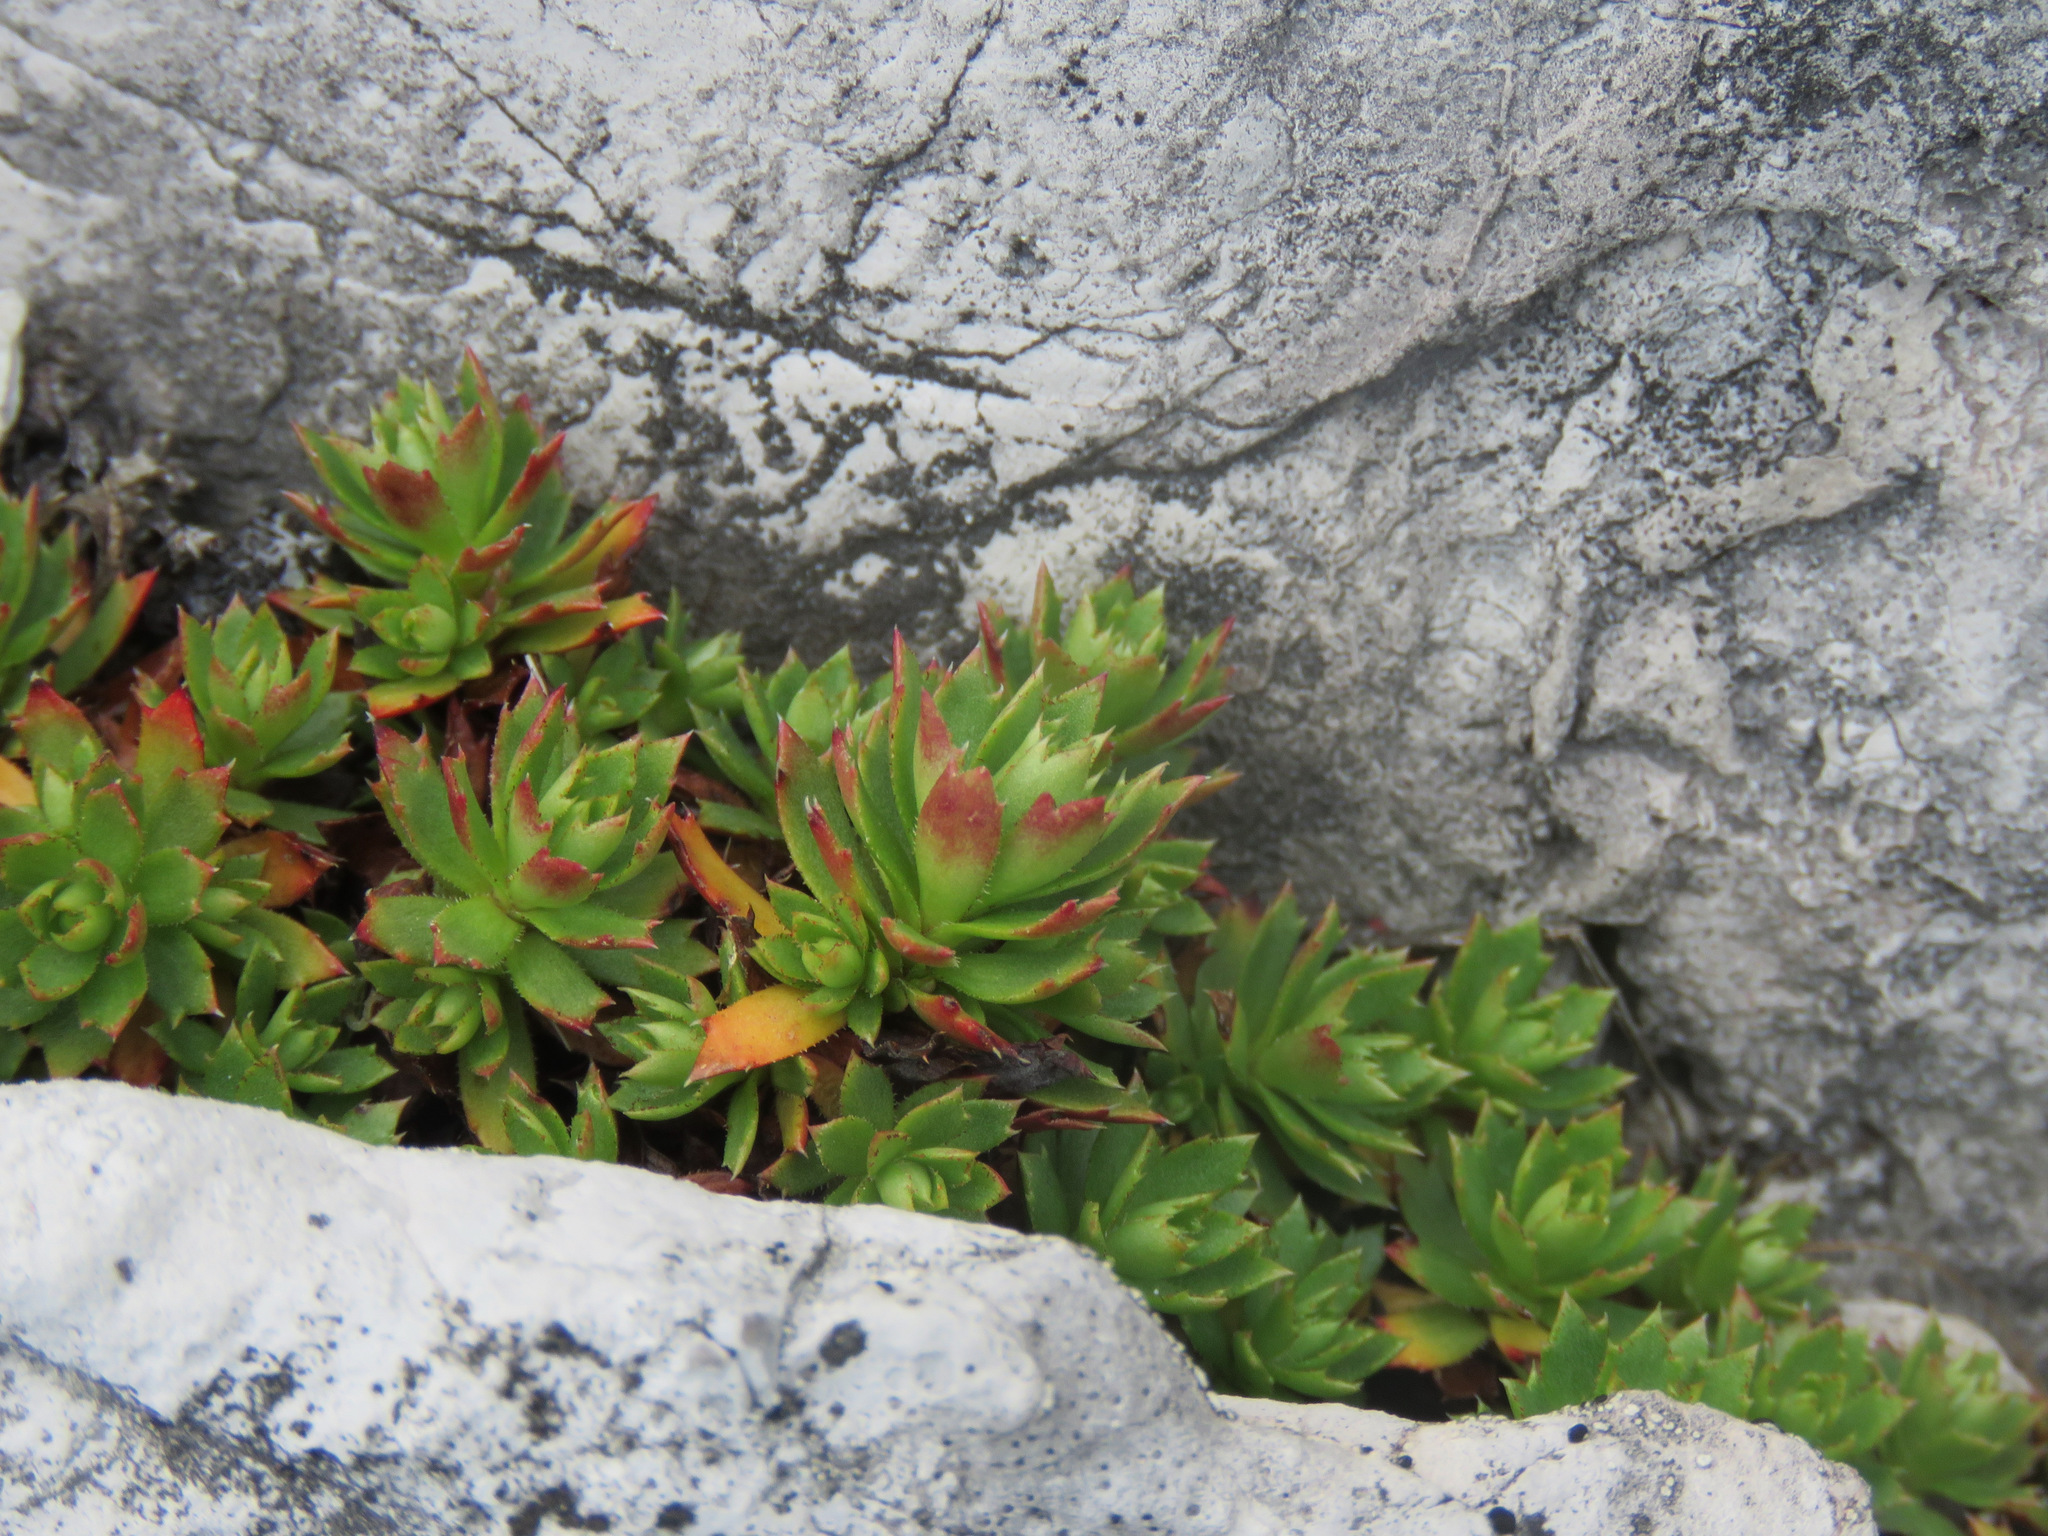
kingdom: Plantae
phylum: Tracheophyta
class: Magnoliopsida
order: Saxifragales
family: Saxifragaceae
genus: Saxifraga
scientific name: Saxifraga tricuspidata
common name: Prickly saxifrage
